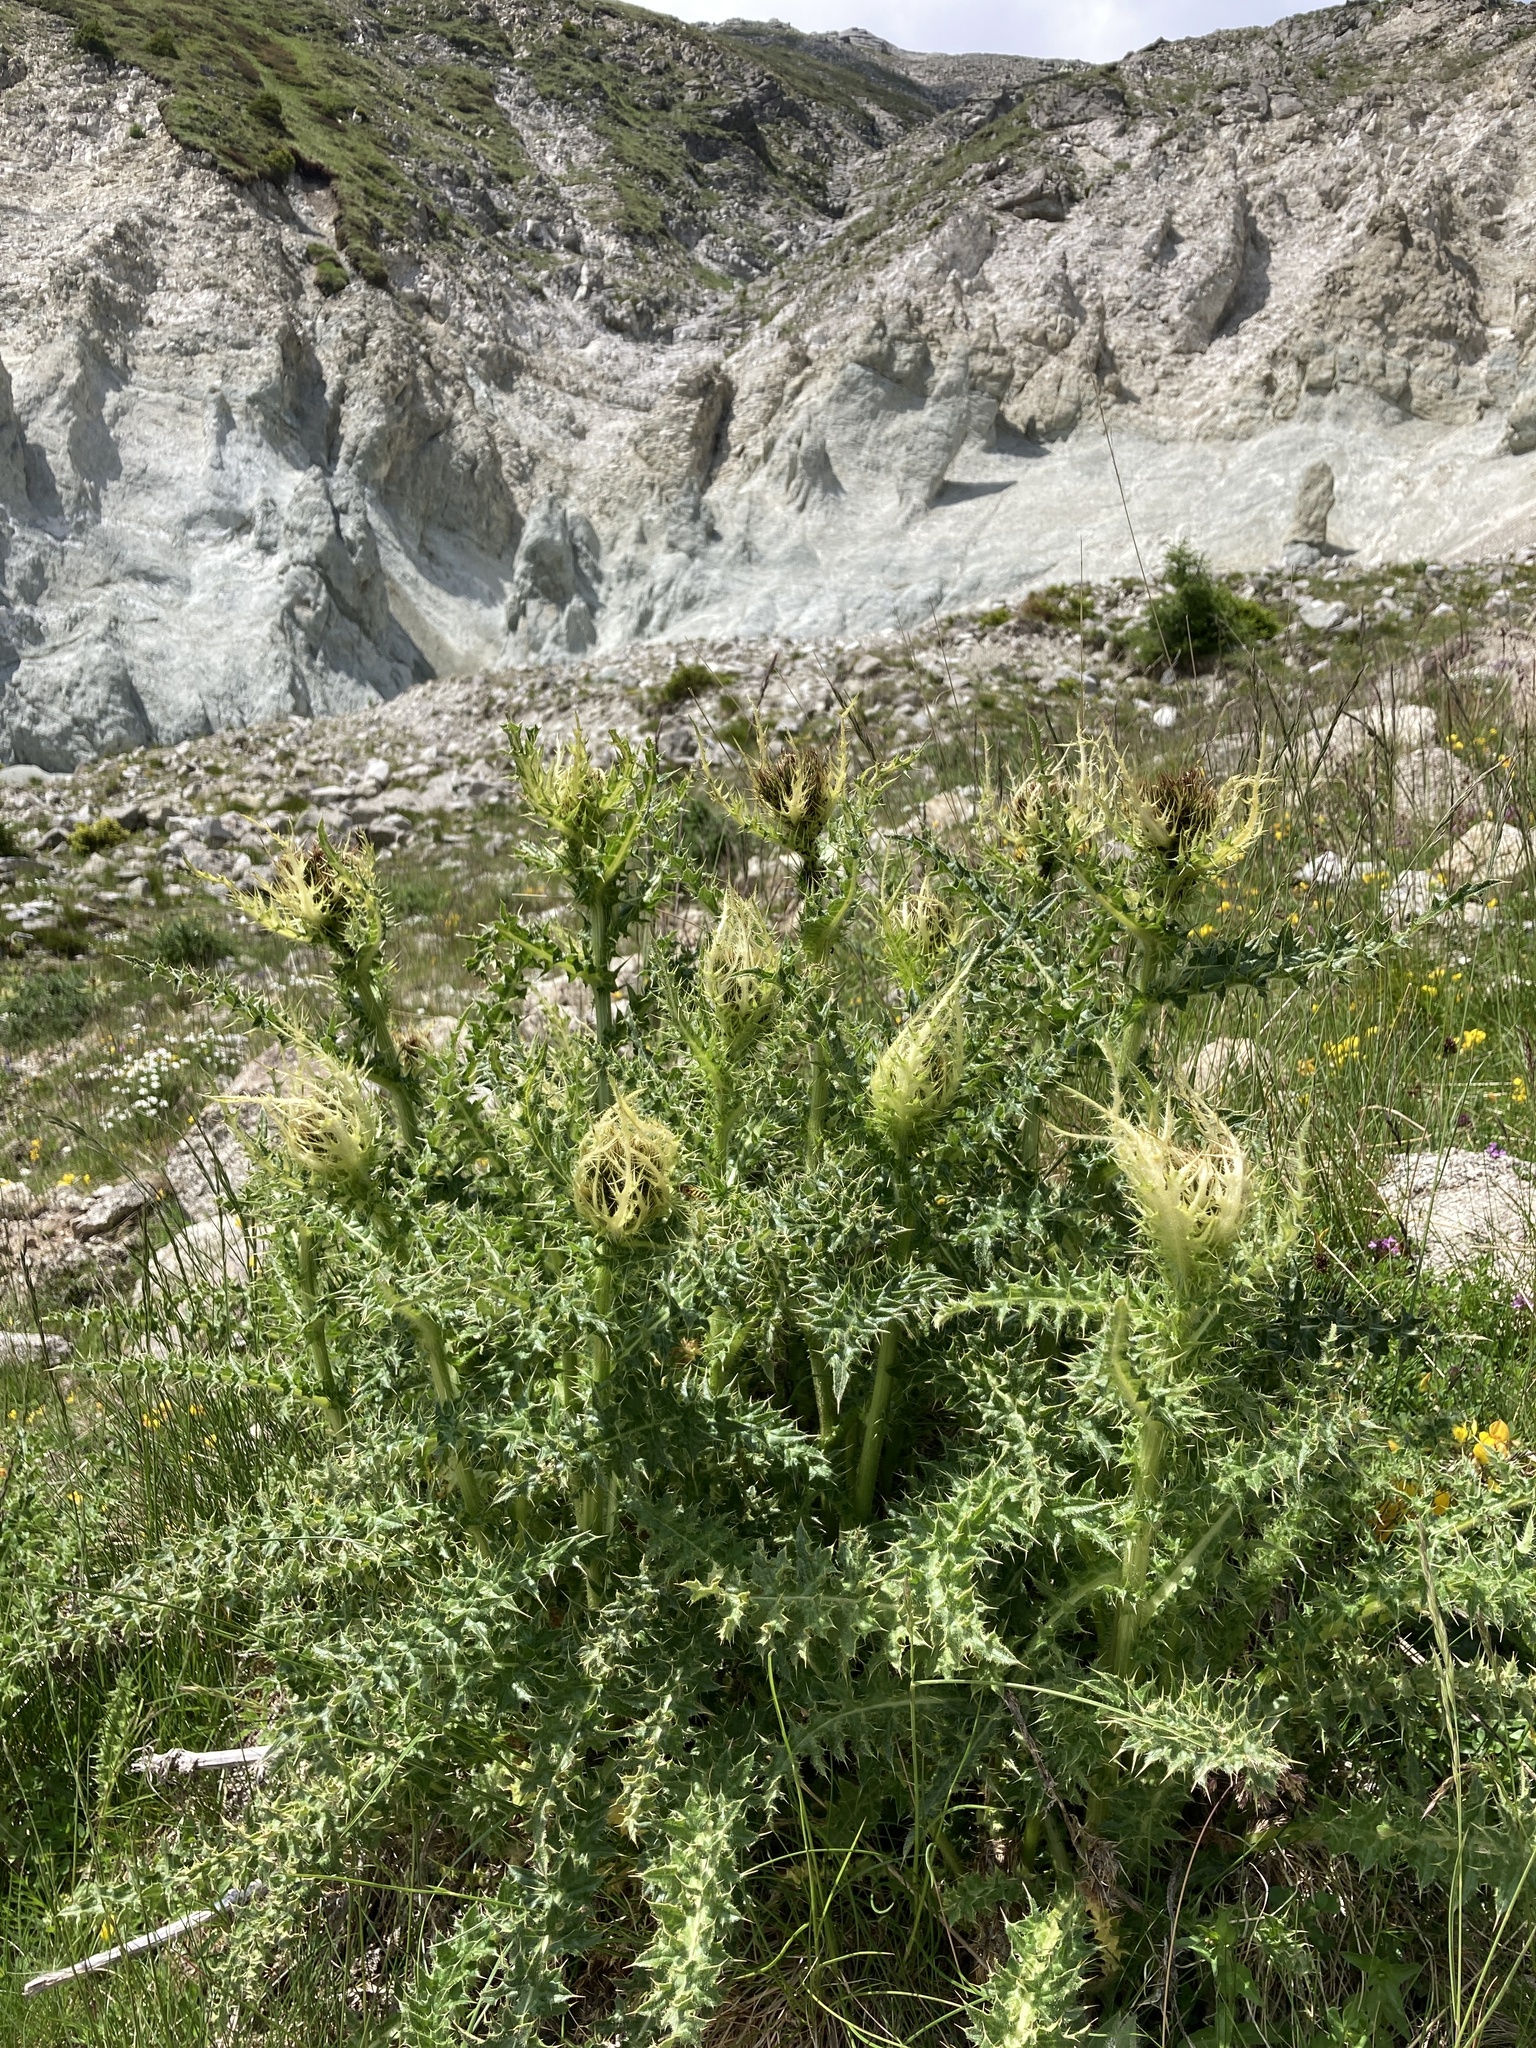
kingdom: Plantae
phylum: Tracheophyta
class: Magnoliopsida
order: Asterales
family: Asteraceae
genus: Cirsium
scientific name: Cirsium spinosissimum
